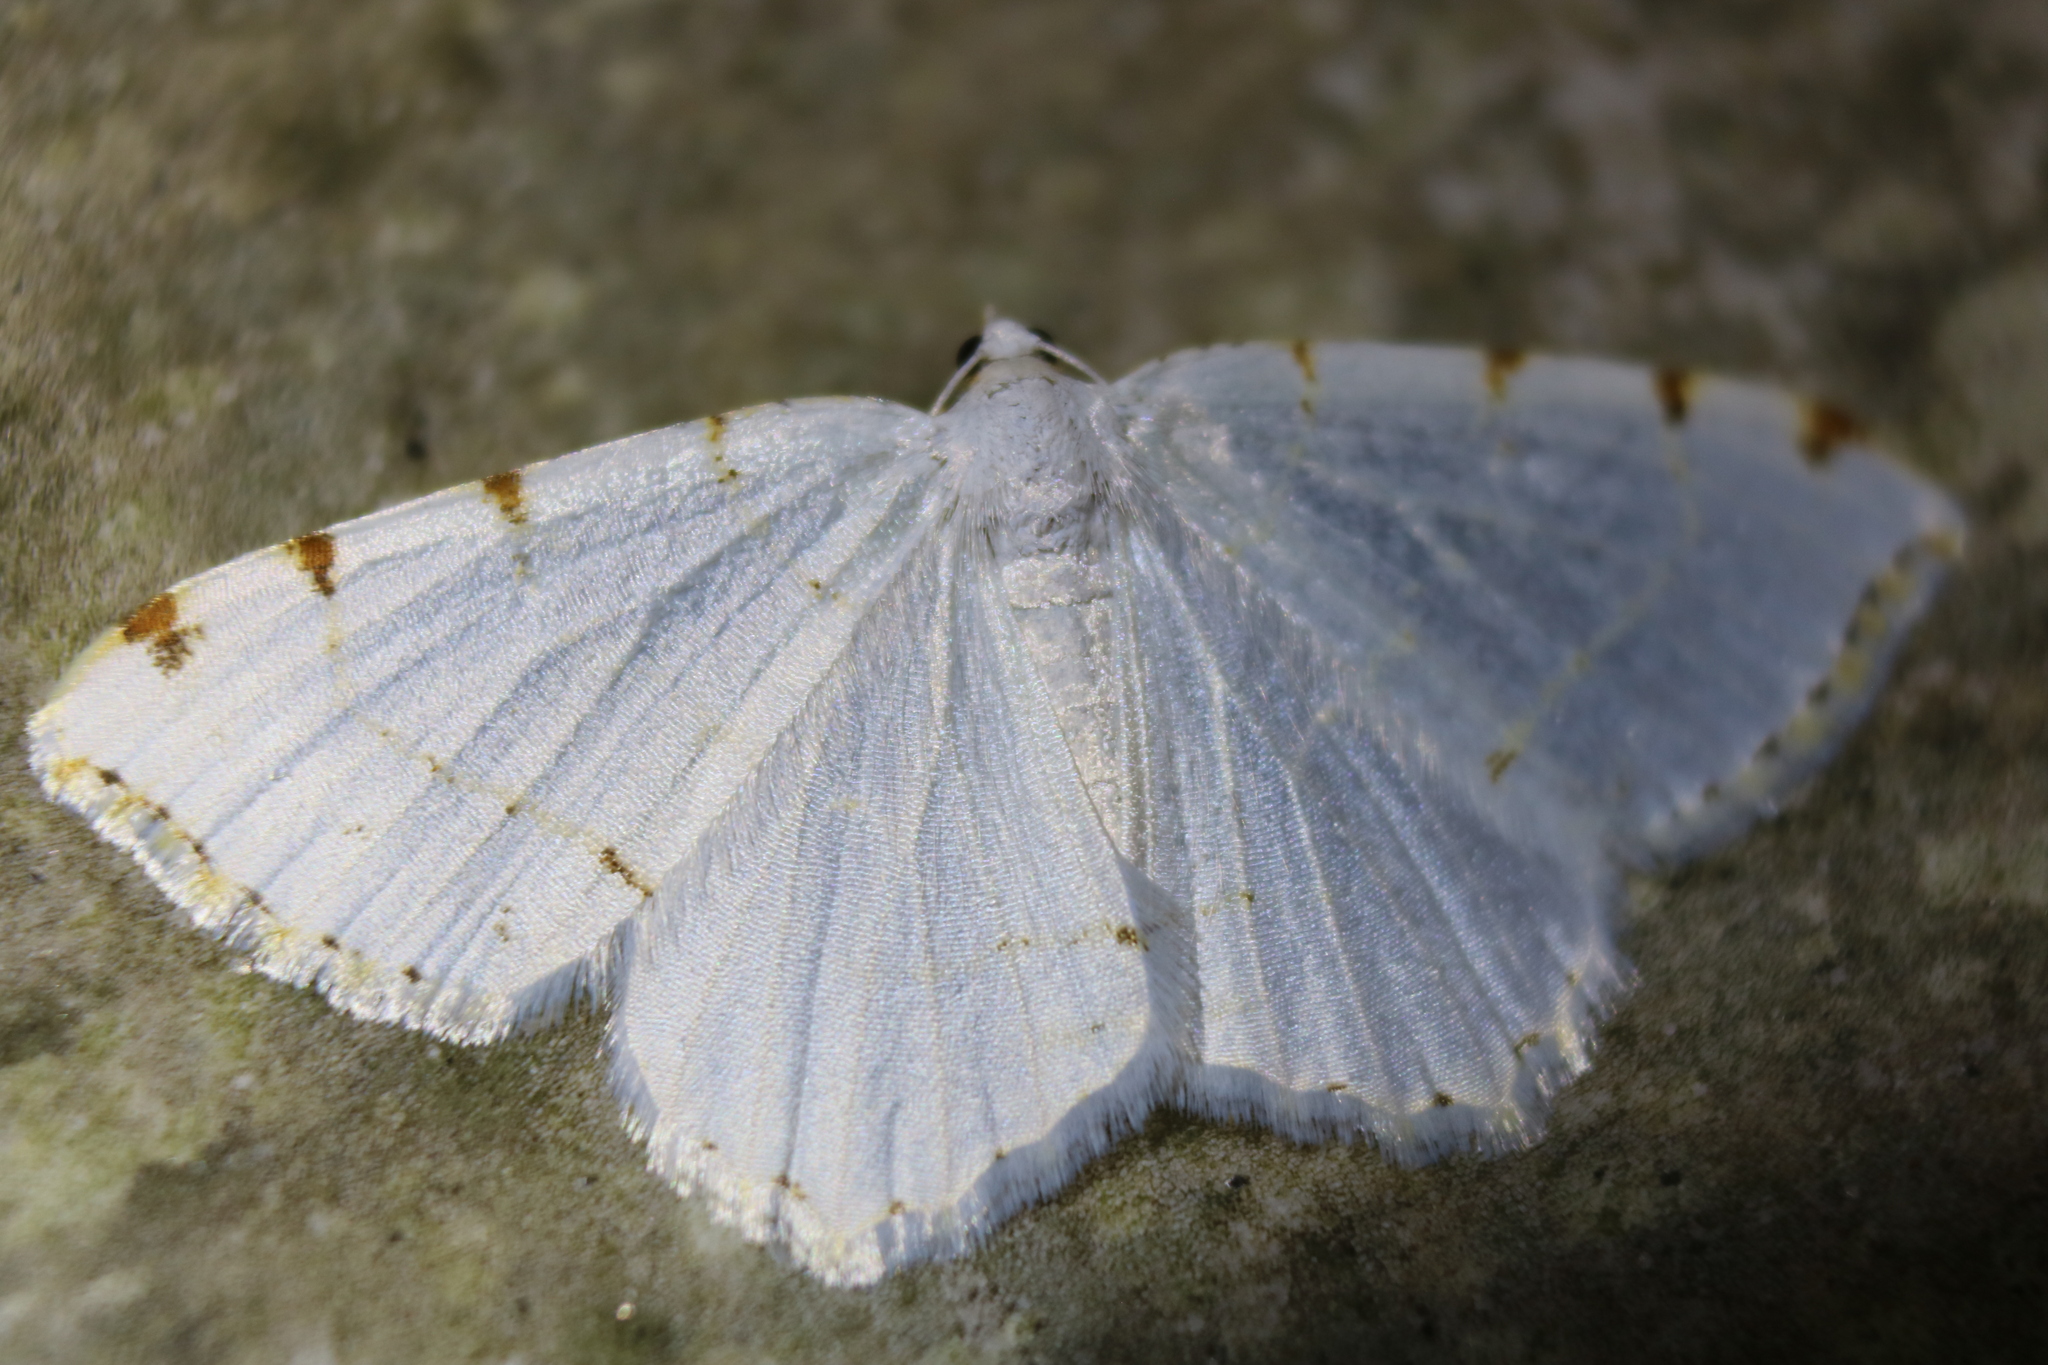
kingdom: Animalia
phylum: Arthropoda
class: Insecta
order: Lepidoptera
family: Geometridae
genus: Macaria
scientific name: Macaria pustularia
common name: Lesser maple spanworm moth
